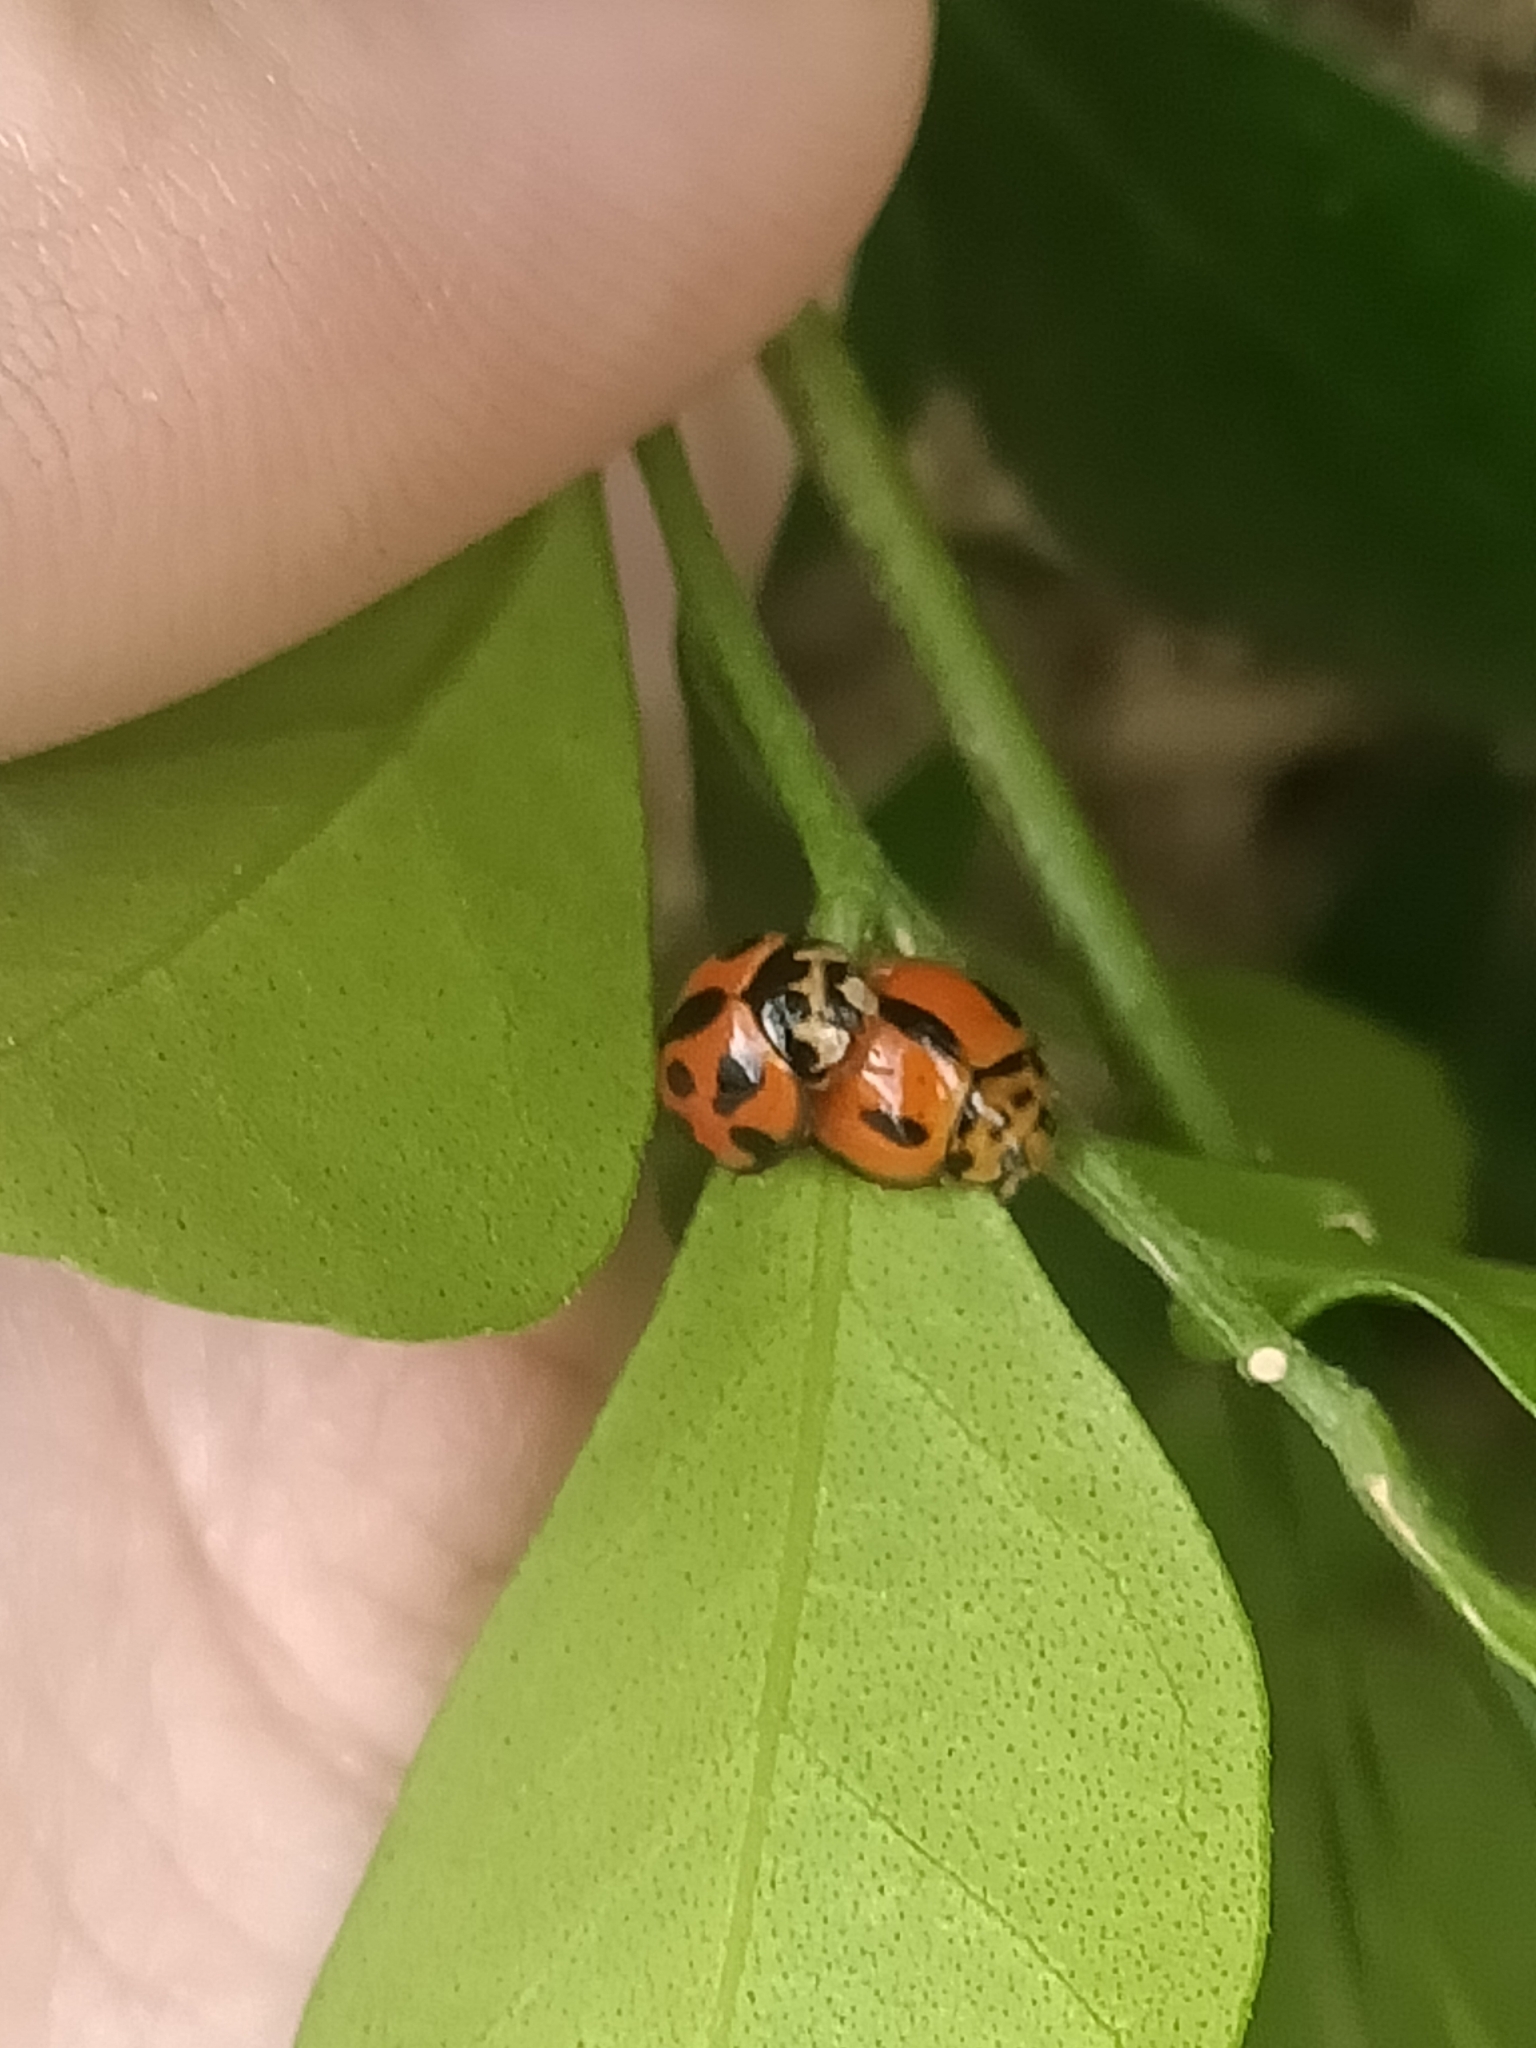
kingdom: Animalia
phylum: Arthropoda
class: Insecta
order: Coleoptera
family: Coccinellidae
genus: Coelophora
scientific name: Coelophora inaequalis
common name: Common australian lady beetle
